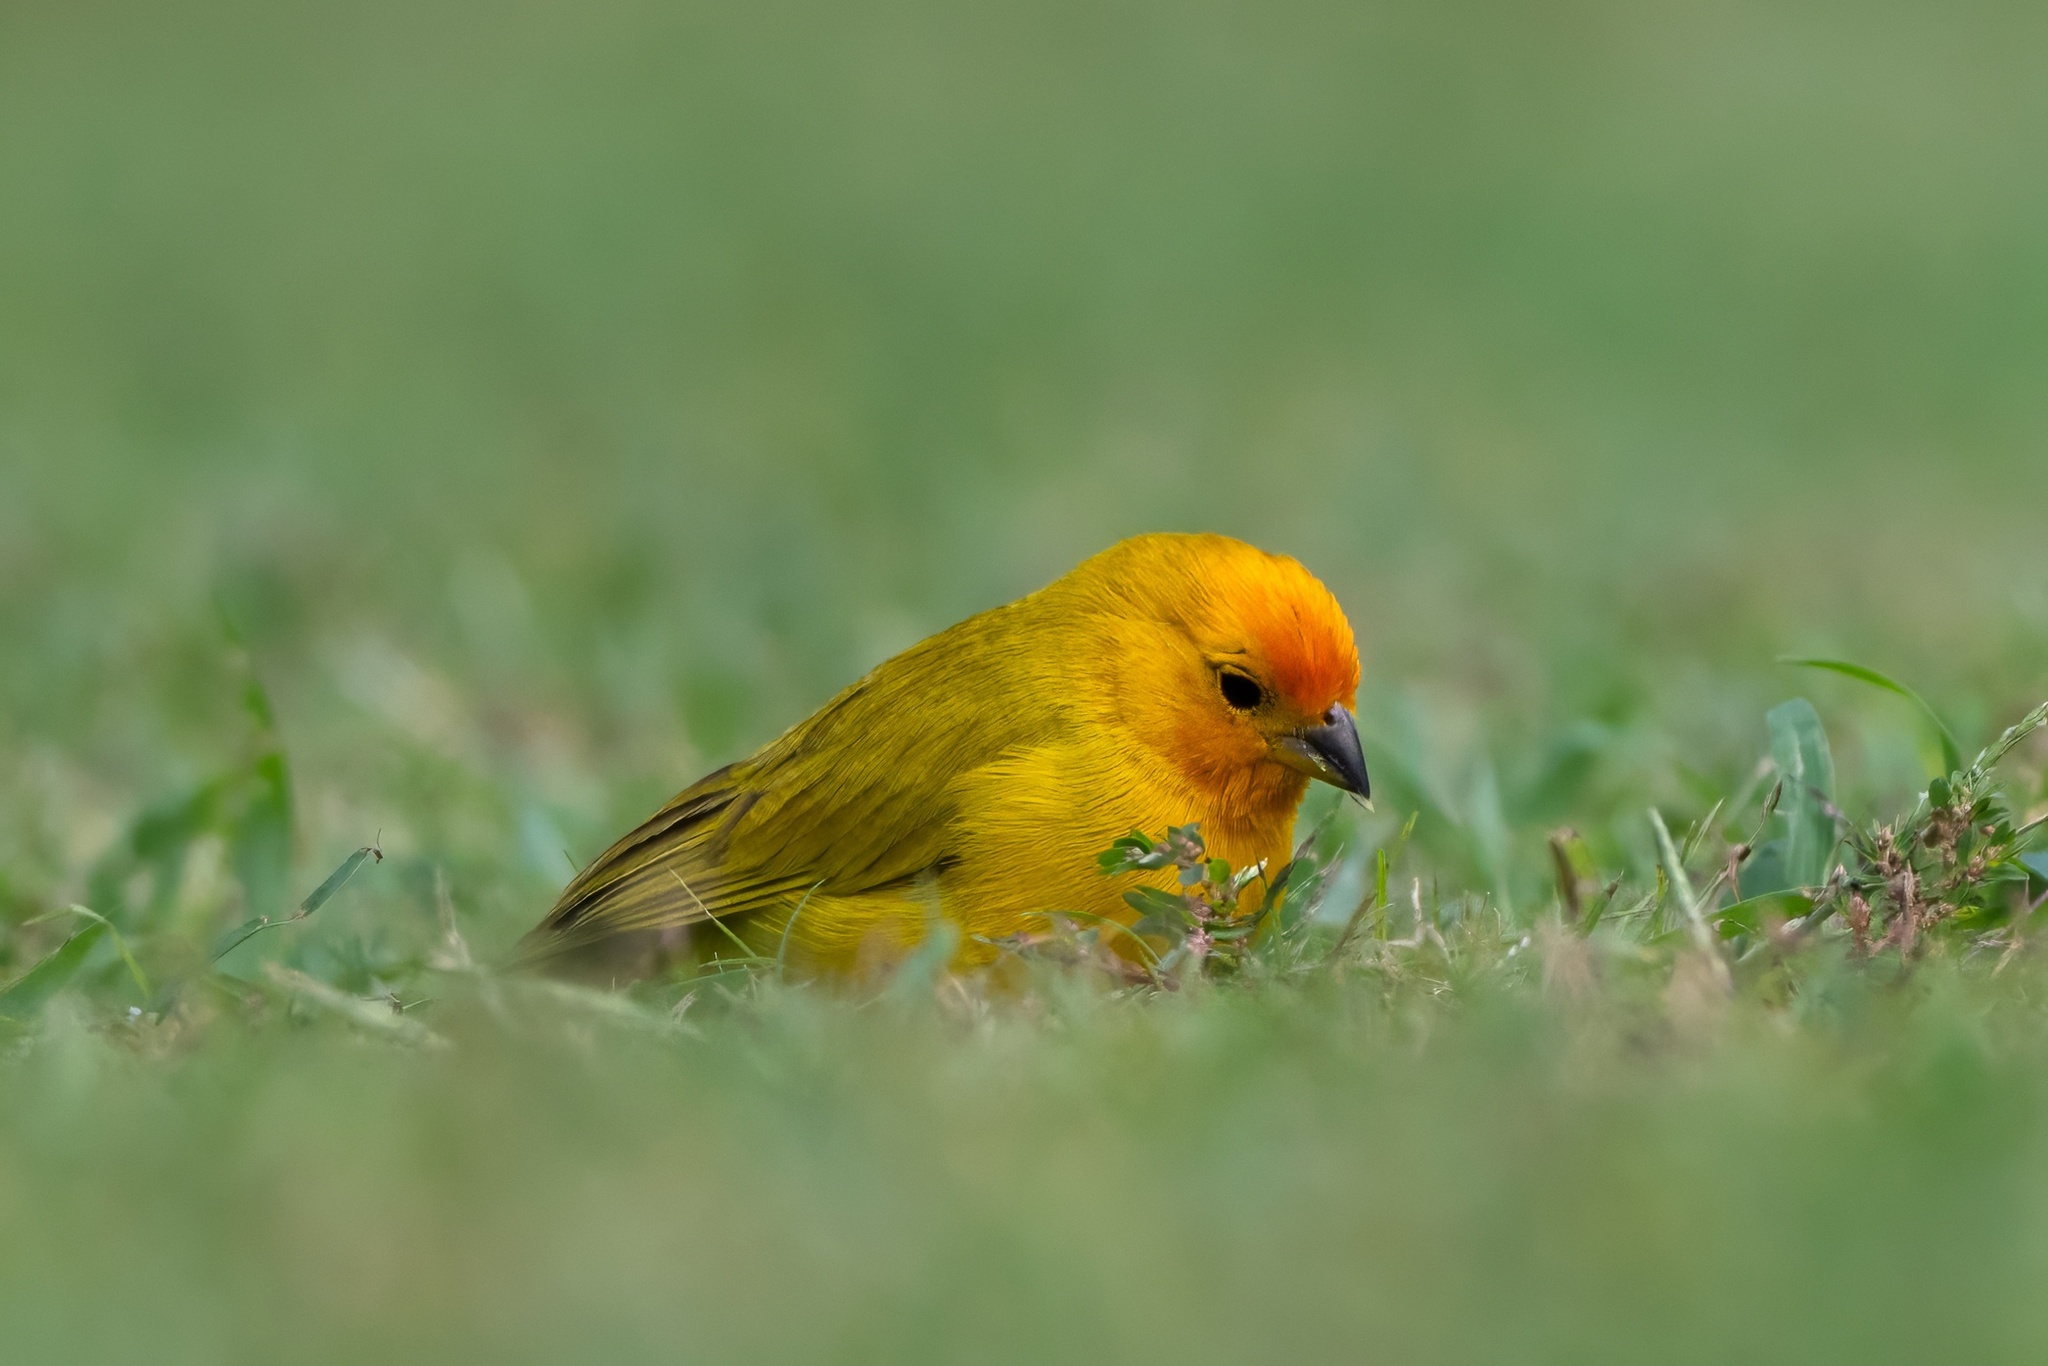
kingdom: Animalia
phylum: Chordata
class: Aves
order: Passeriformes
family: Thraupidae
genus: Sicalis
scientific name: Sicalis flaveola
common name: Saffron finch
